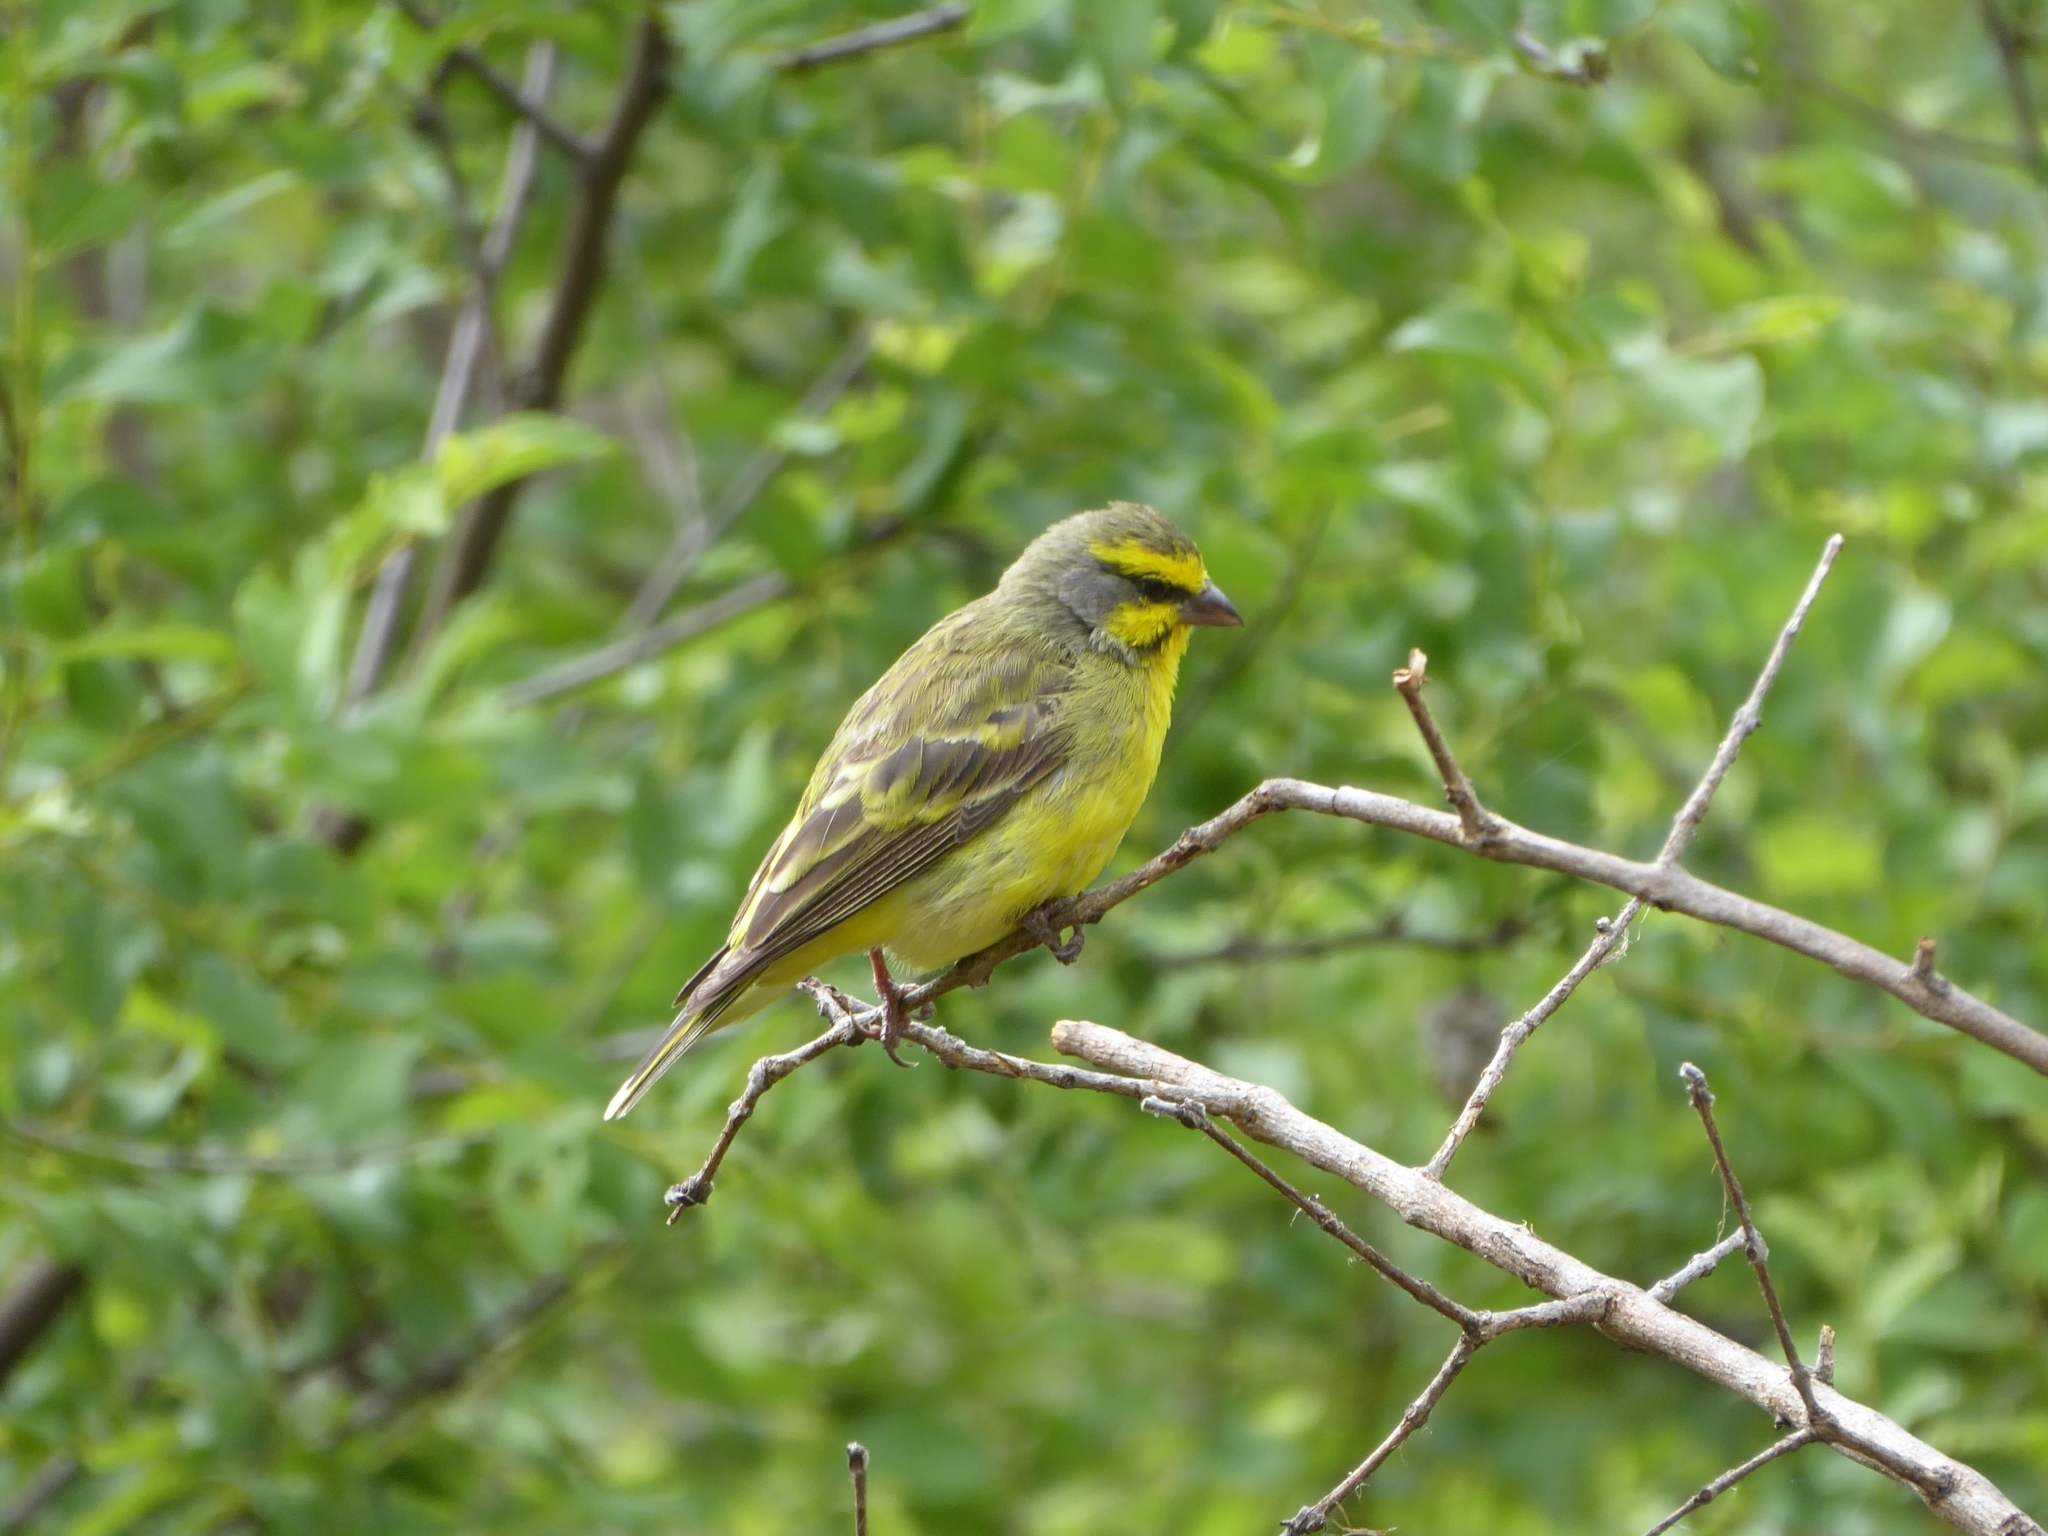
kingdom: Animalia
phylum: Chordata
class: Aves
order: Passeriformes
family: Fringillidae
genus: Crithagra
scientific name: Crithagra mozambica
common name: Yellow-fronted canary
